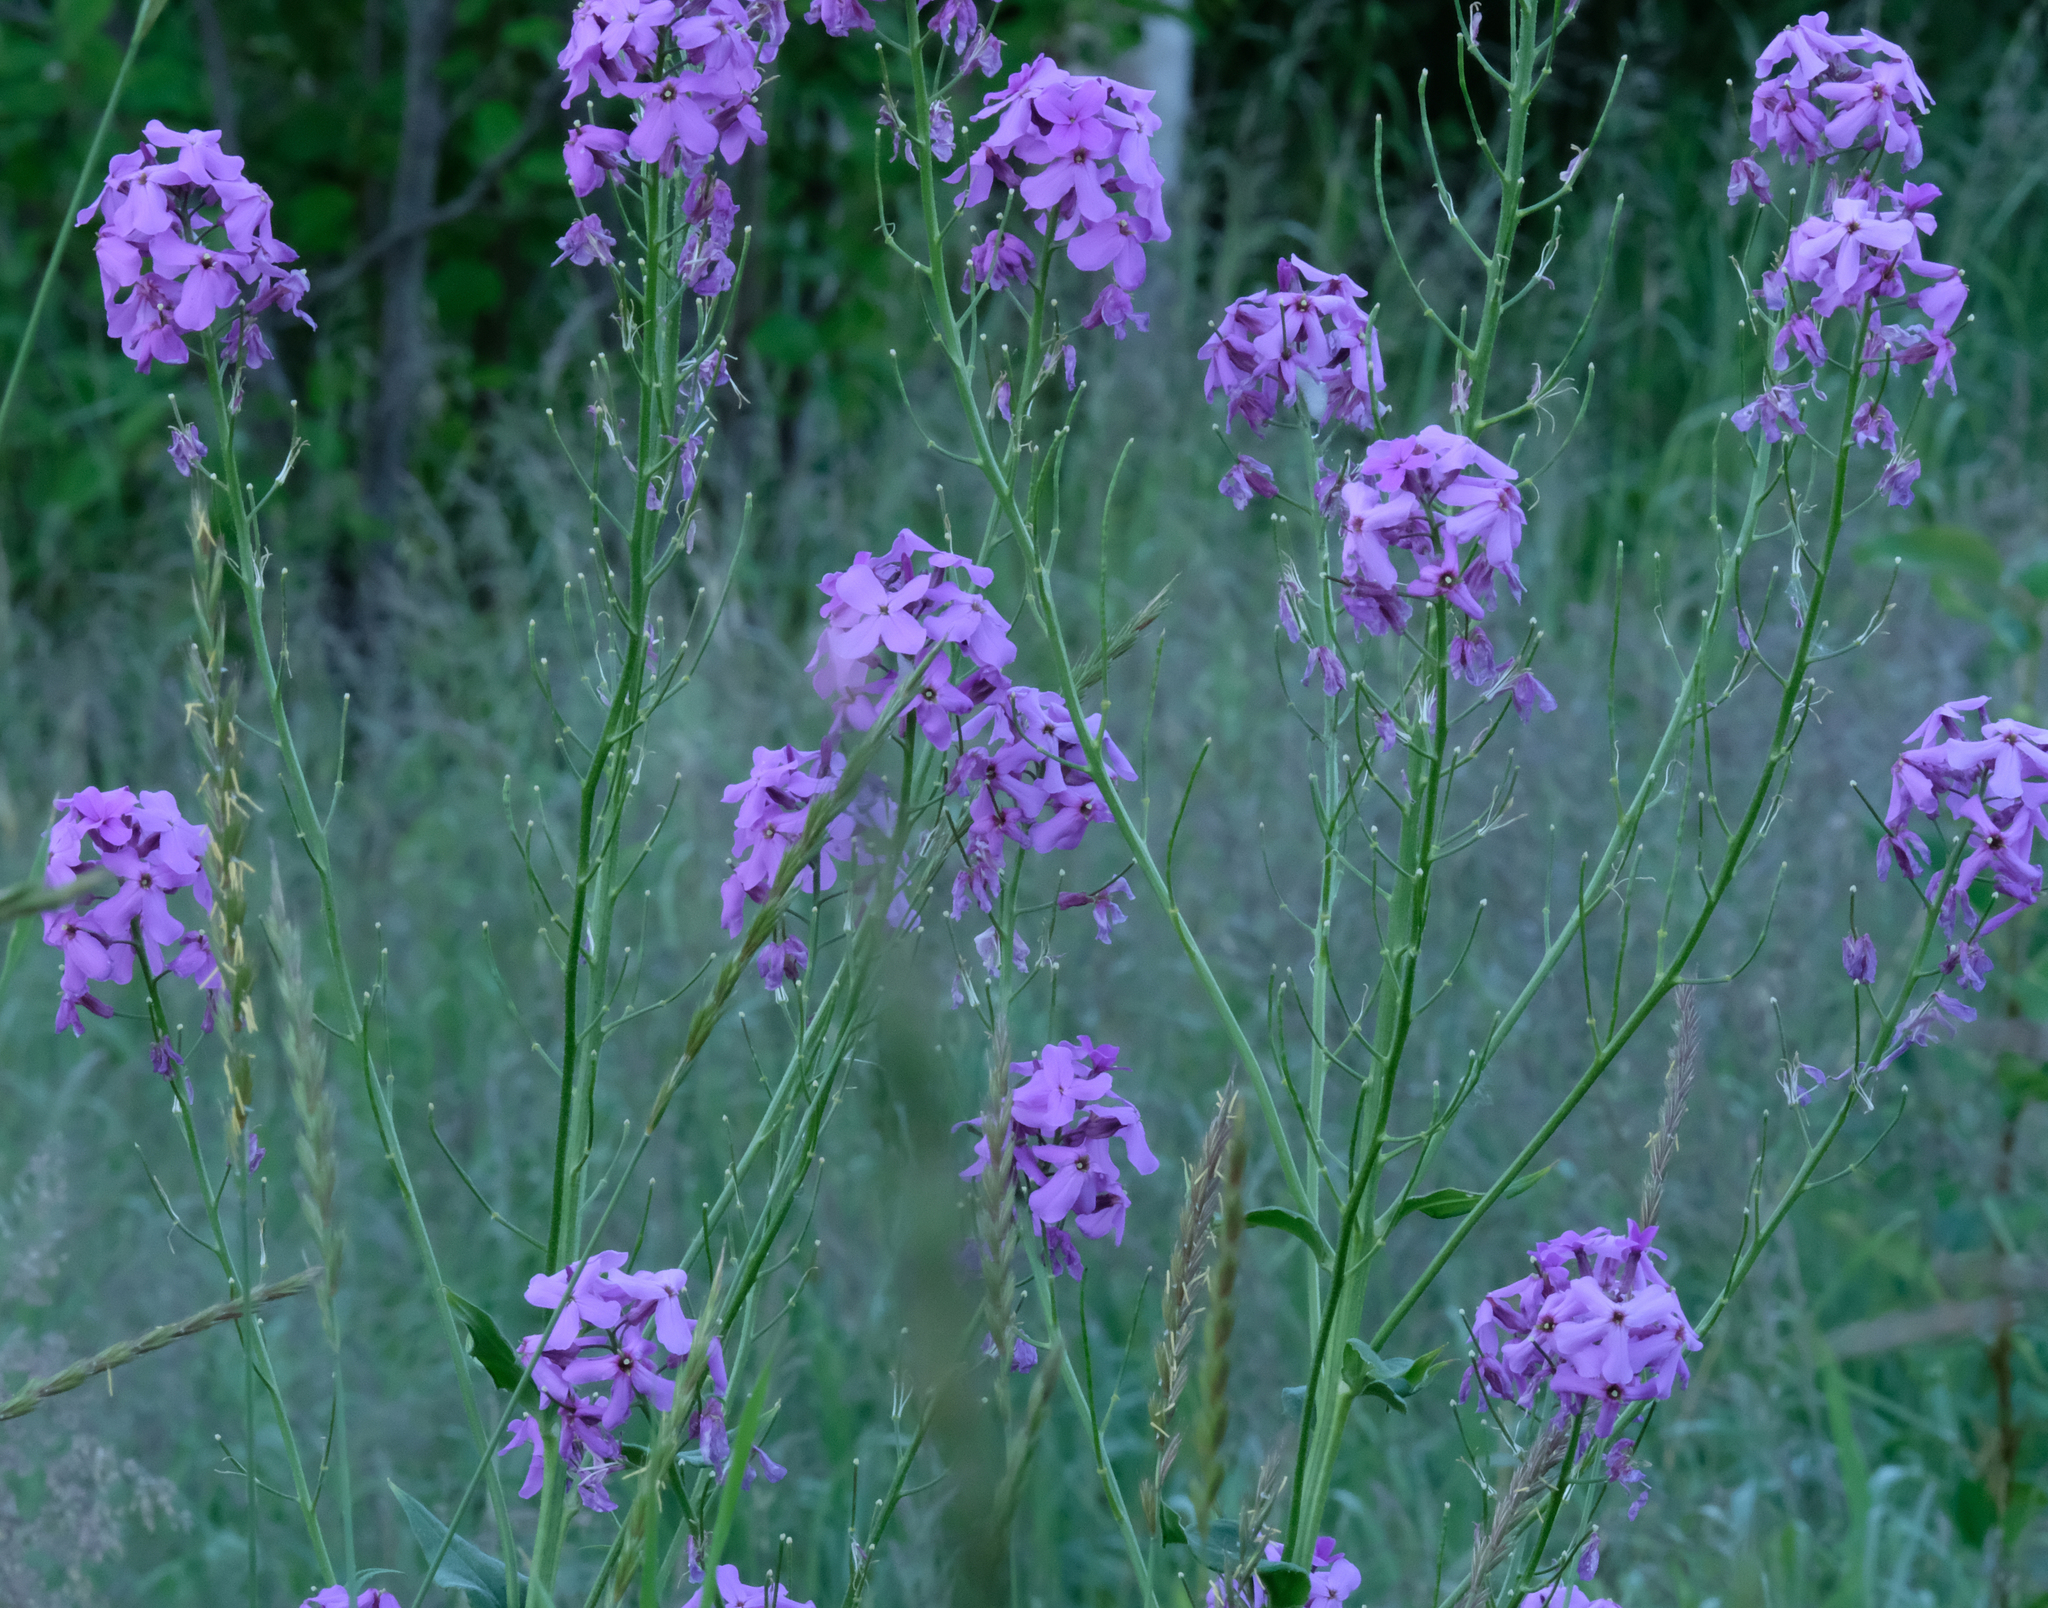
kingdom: Plantae
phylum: Tracheophyta
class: Magnoliopsida
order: Brassicales
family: Brassicaceae
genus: Hesperis
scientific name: Hesperis matronalis
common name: Dame's-violet
